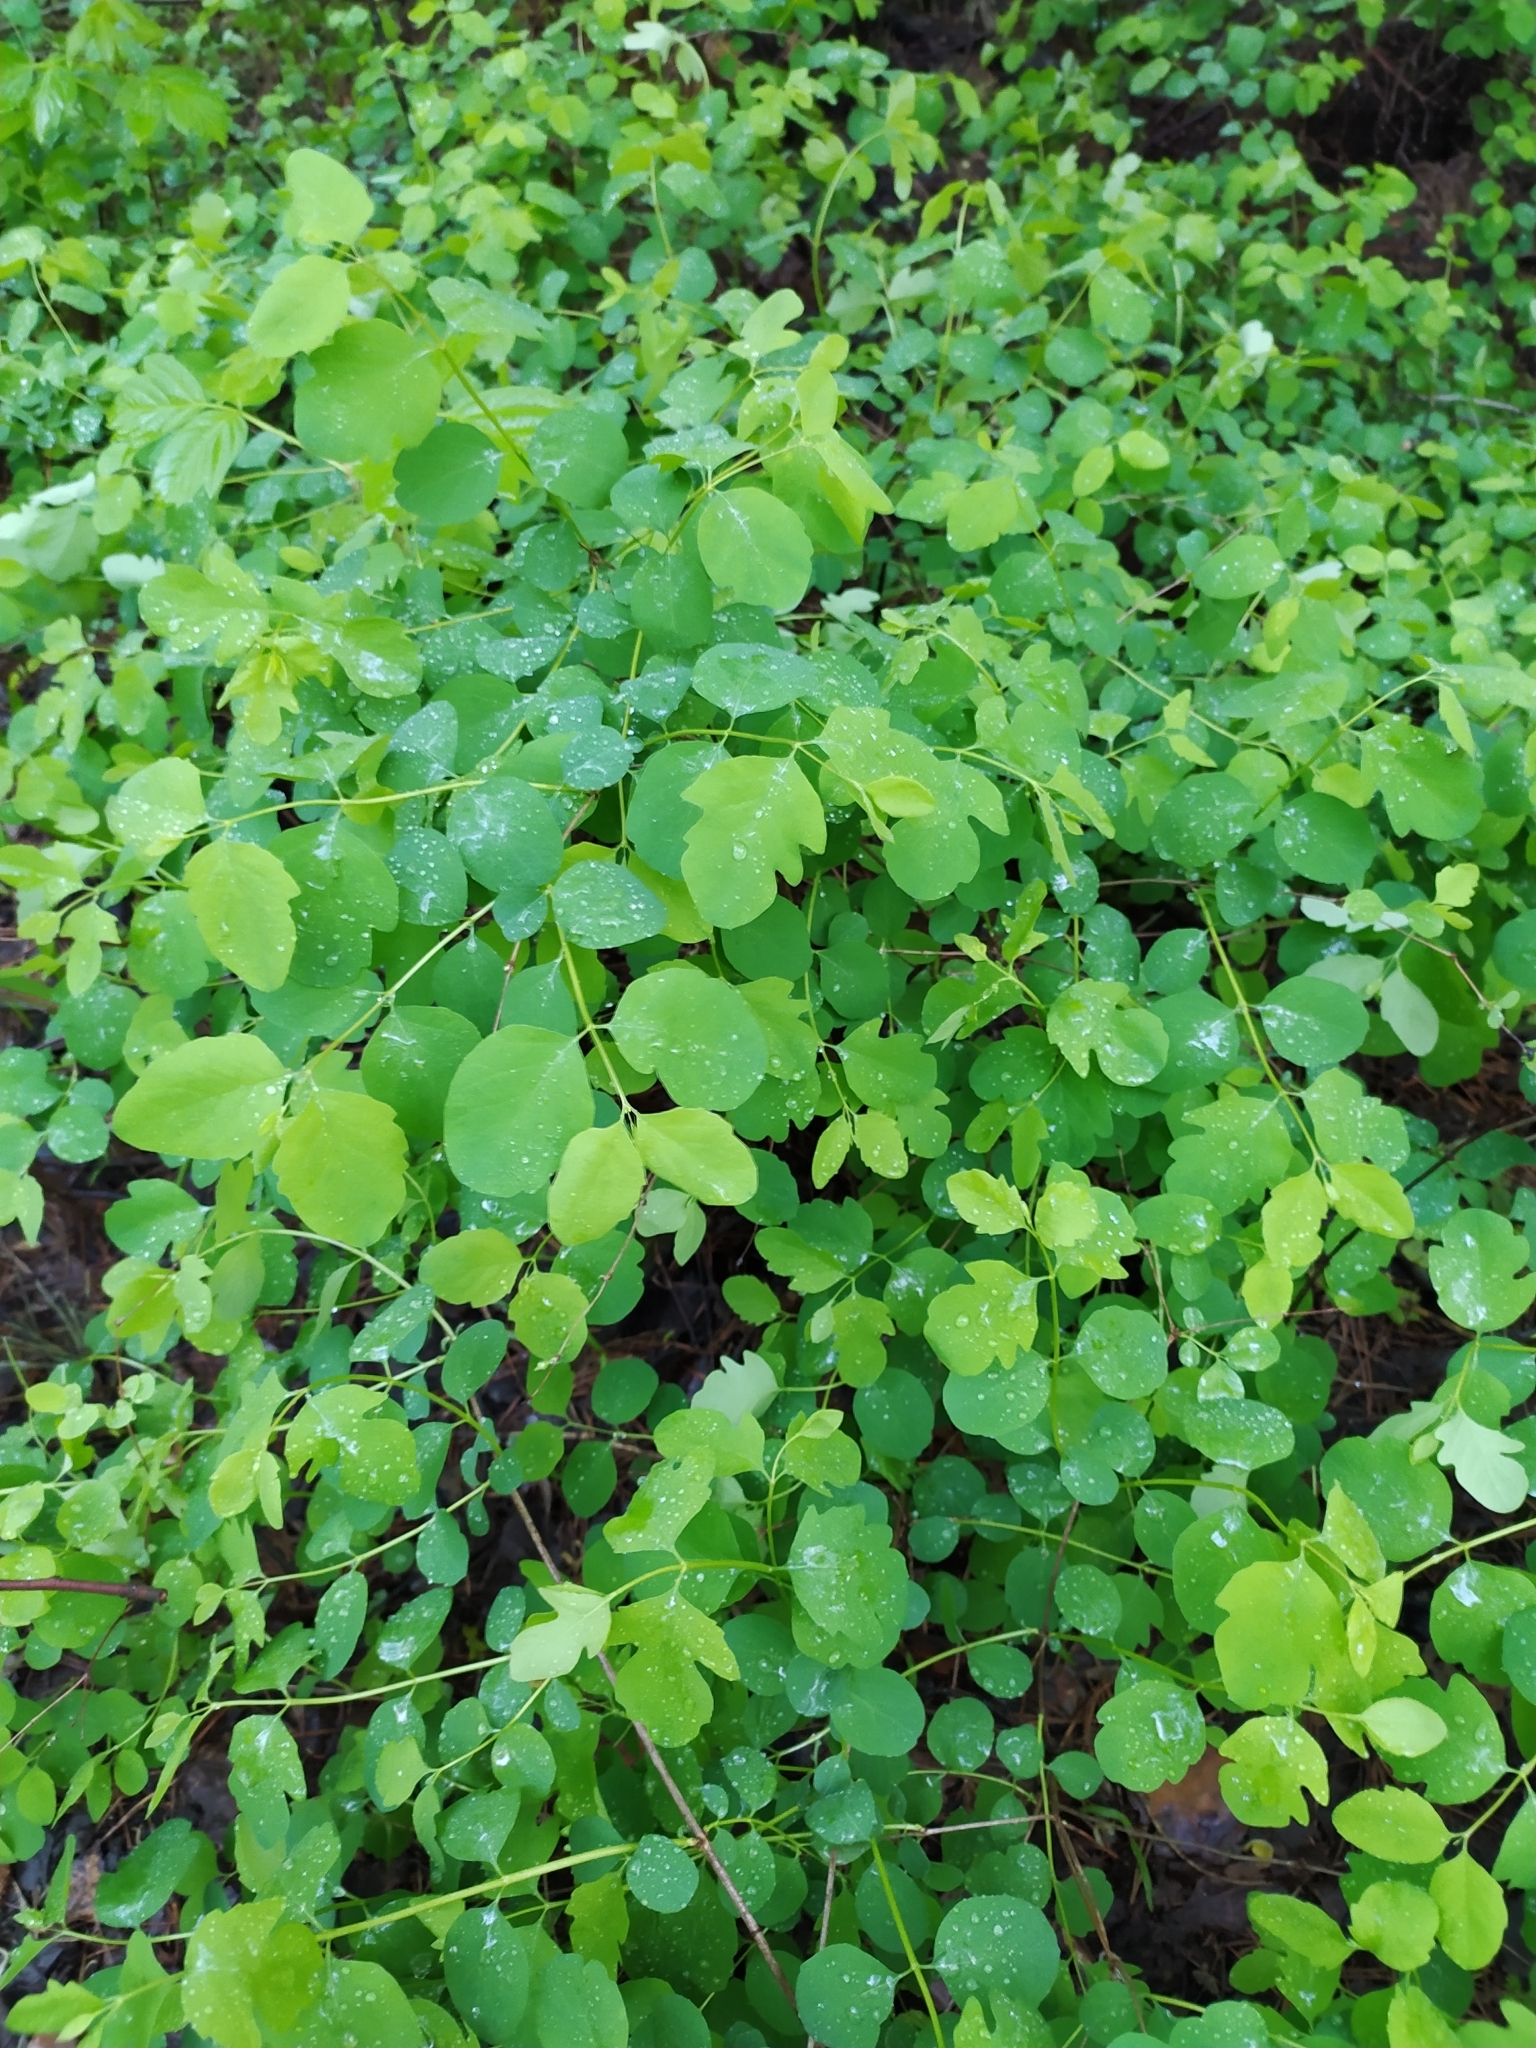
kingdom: Plantae
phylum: Tracheophyta
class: Magnoliopsida
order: Dipsacales
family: Caprifoliaceae
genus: Symphoricarpos
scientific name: Symphoricarpos albus
